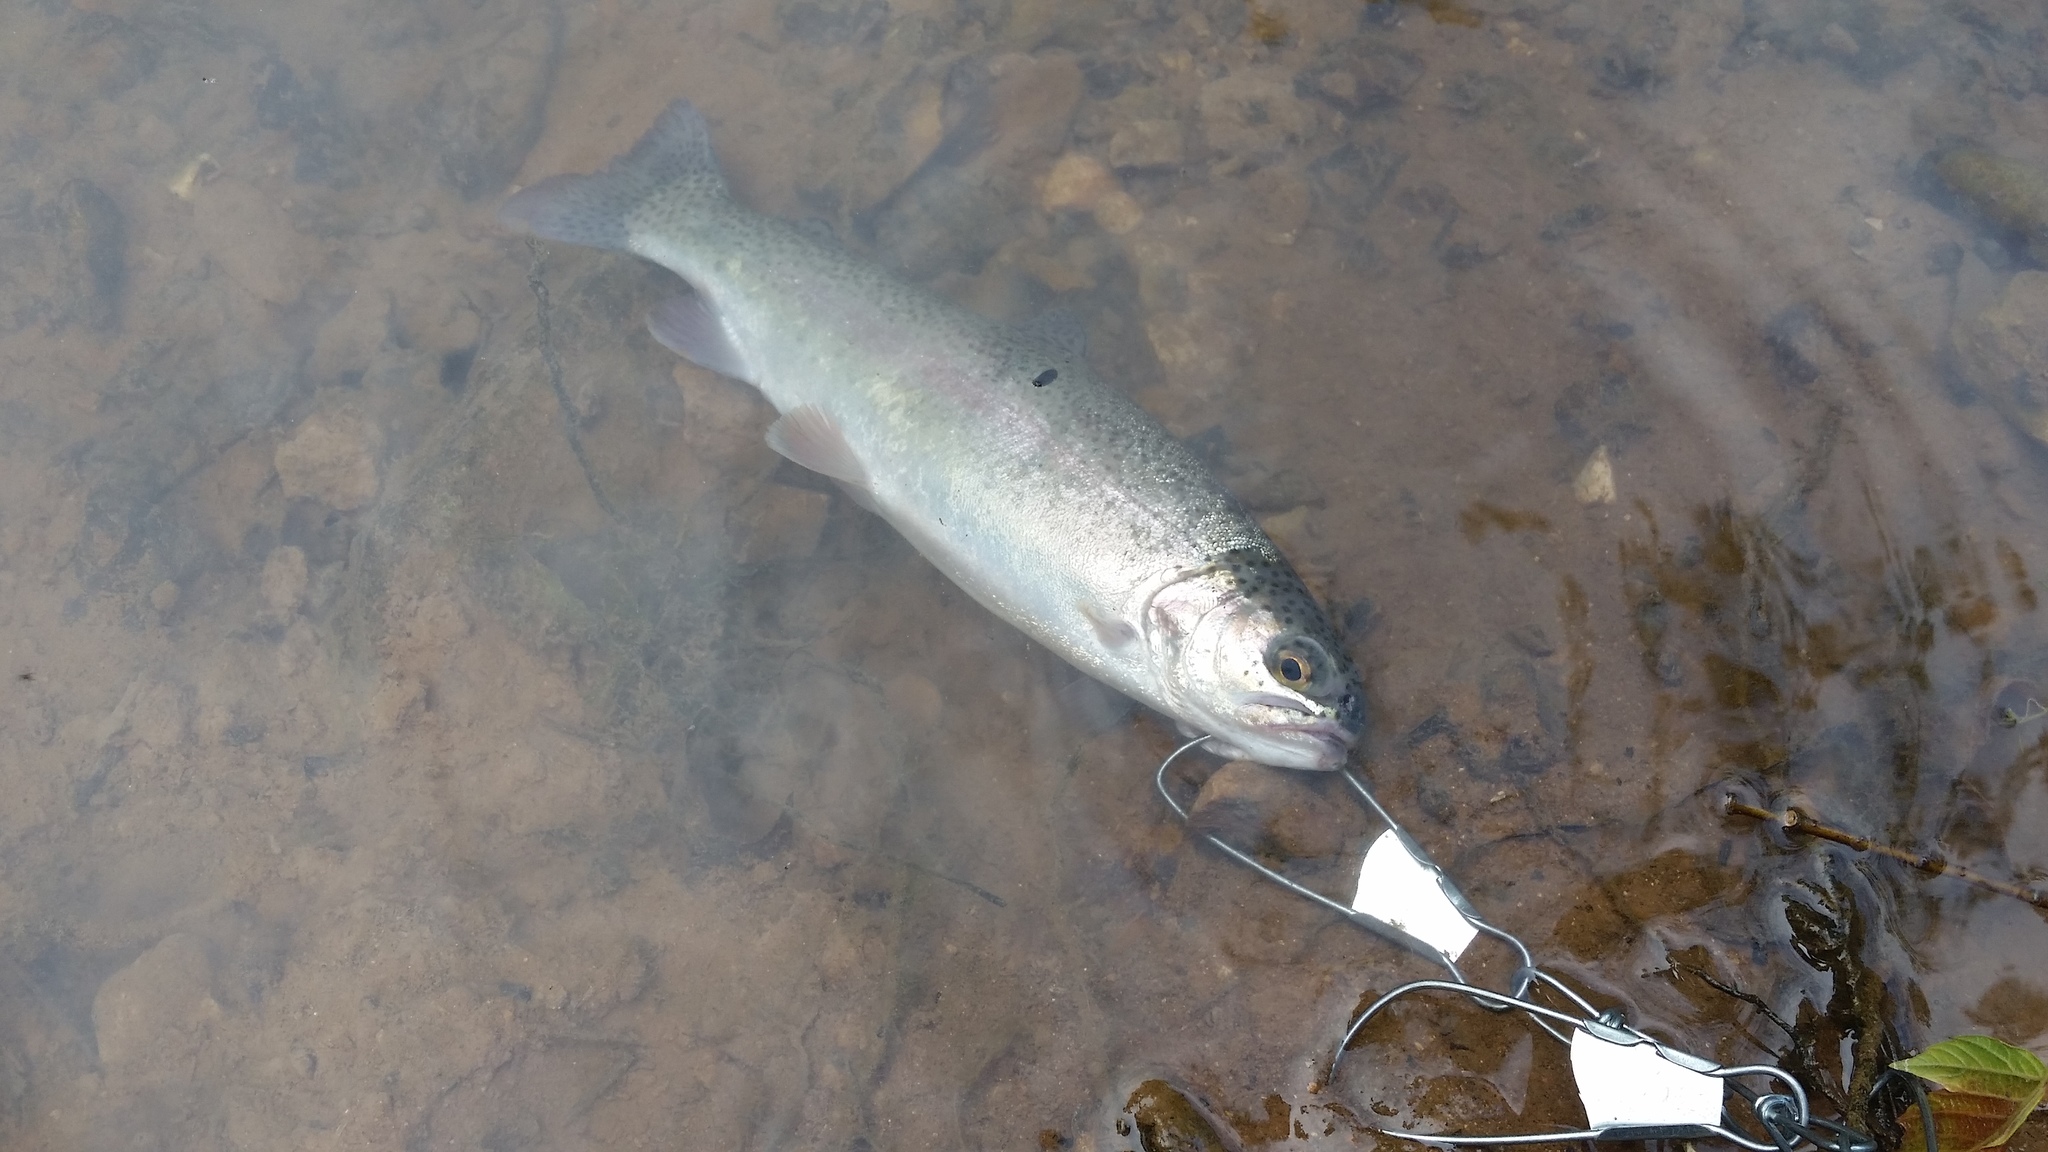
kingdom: Animalia
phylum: Chordata
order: Salmoniformes
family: Salmonidae
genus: Oncorhynchus
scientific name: Oncorhynchus mykiss
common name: Rainbow trout
